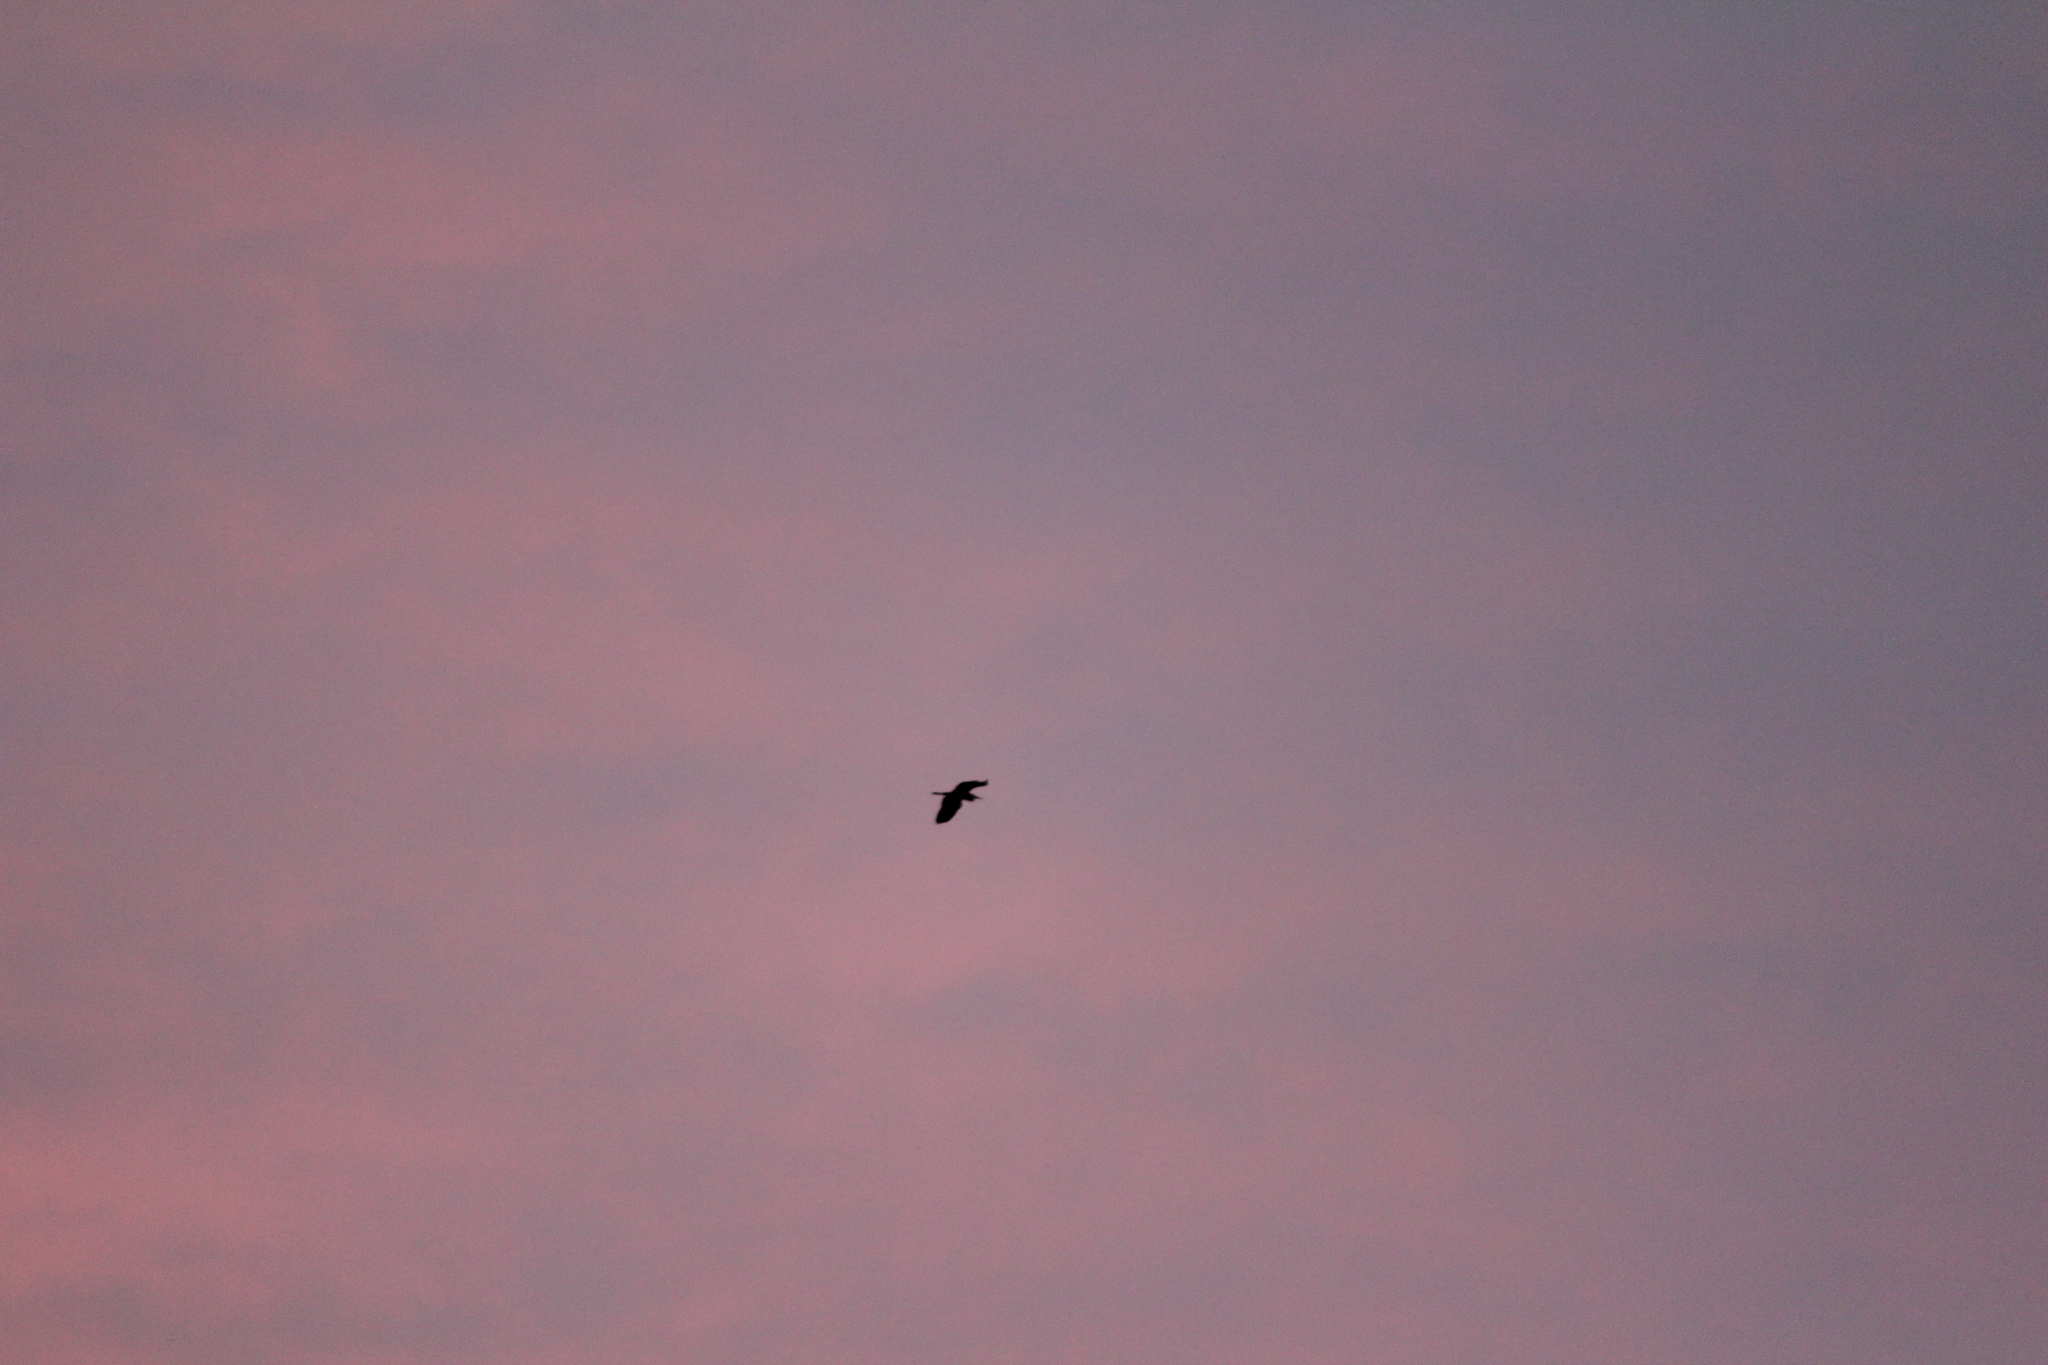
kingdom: Animalia
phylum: Chordata
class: Aves
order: Accipitriformes
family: Accipitridae
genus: Milvus
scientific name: Milvus migrans
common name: Black kite
